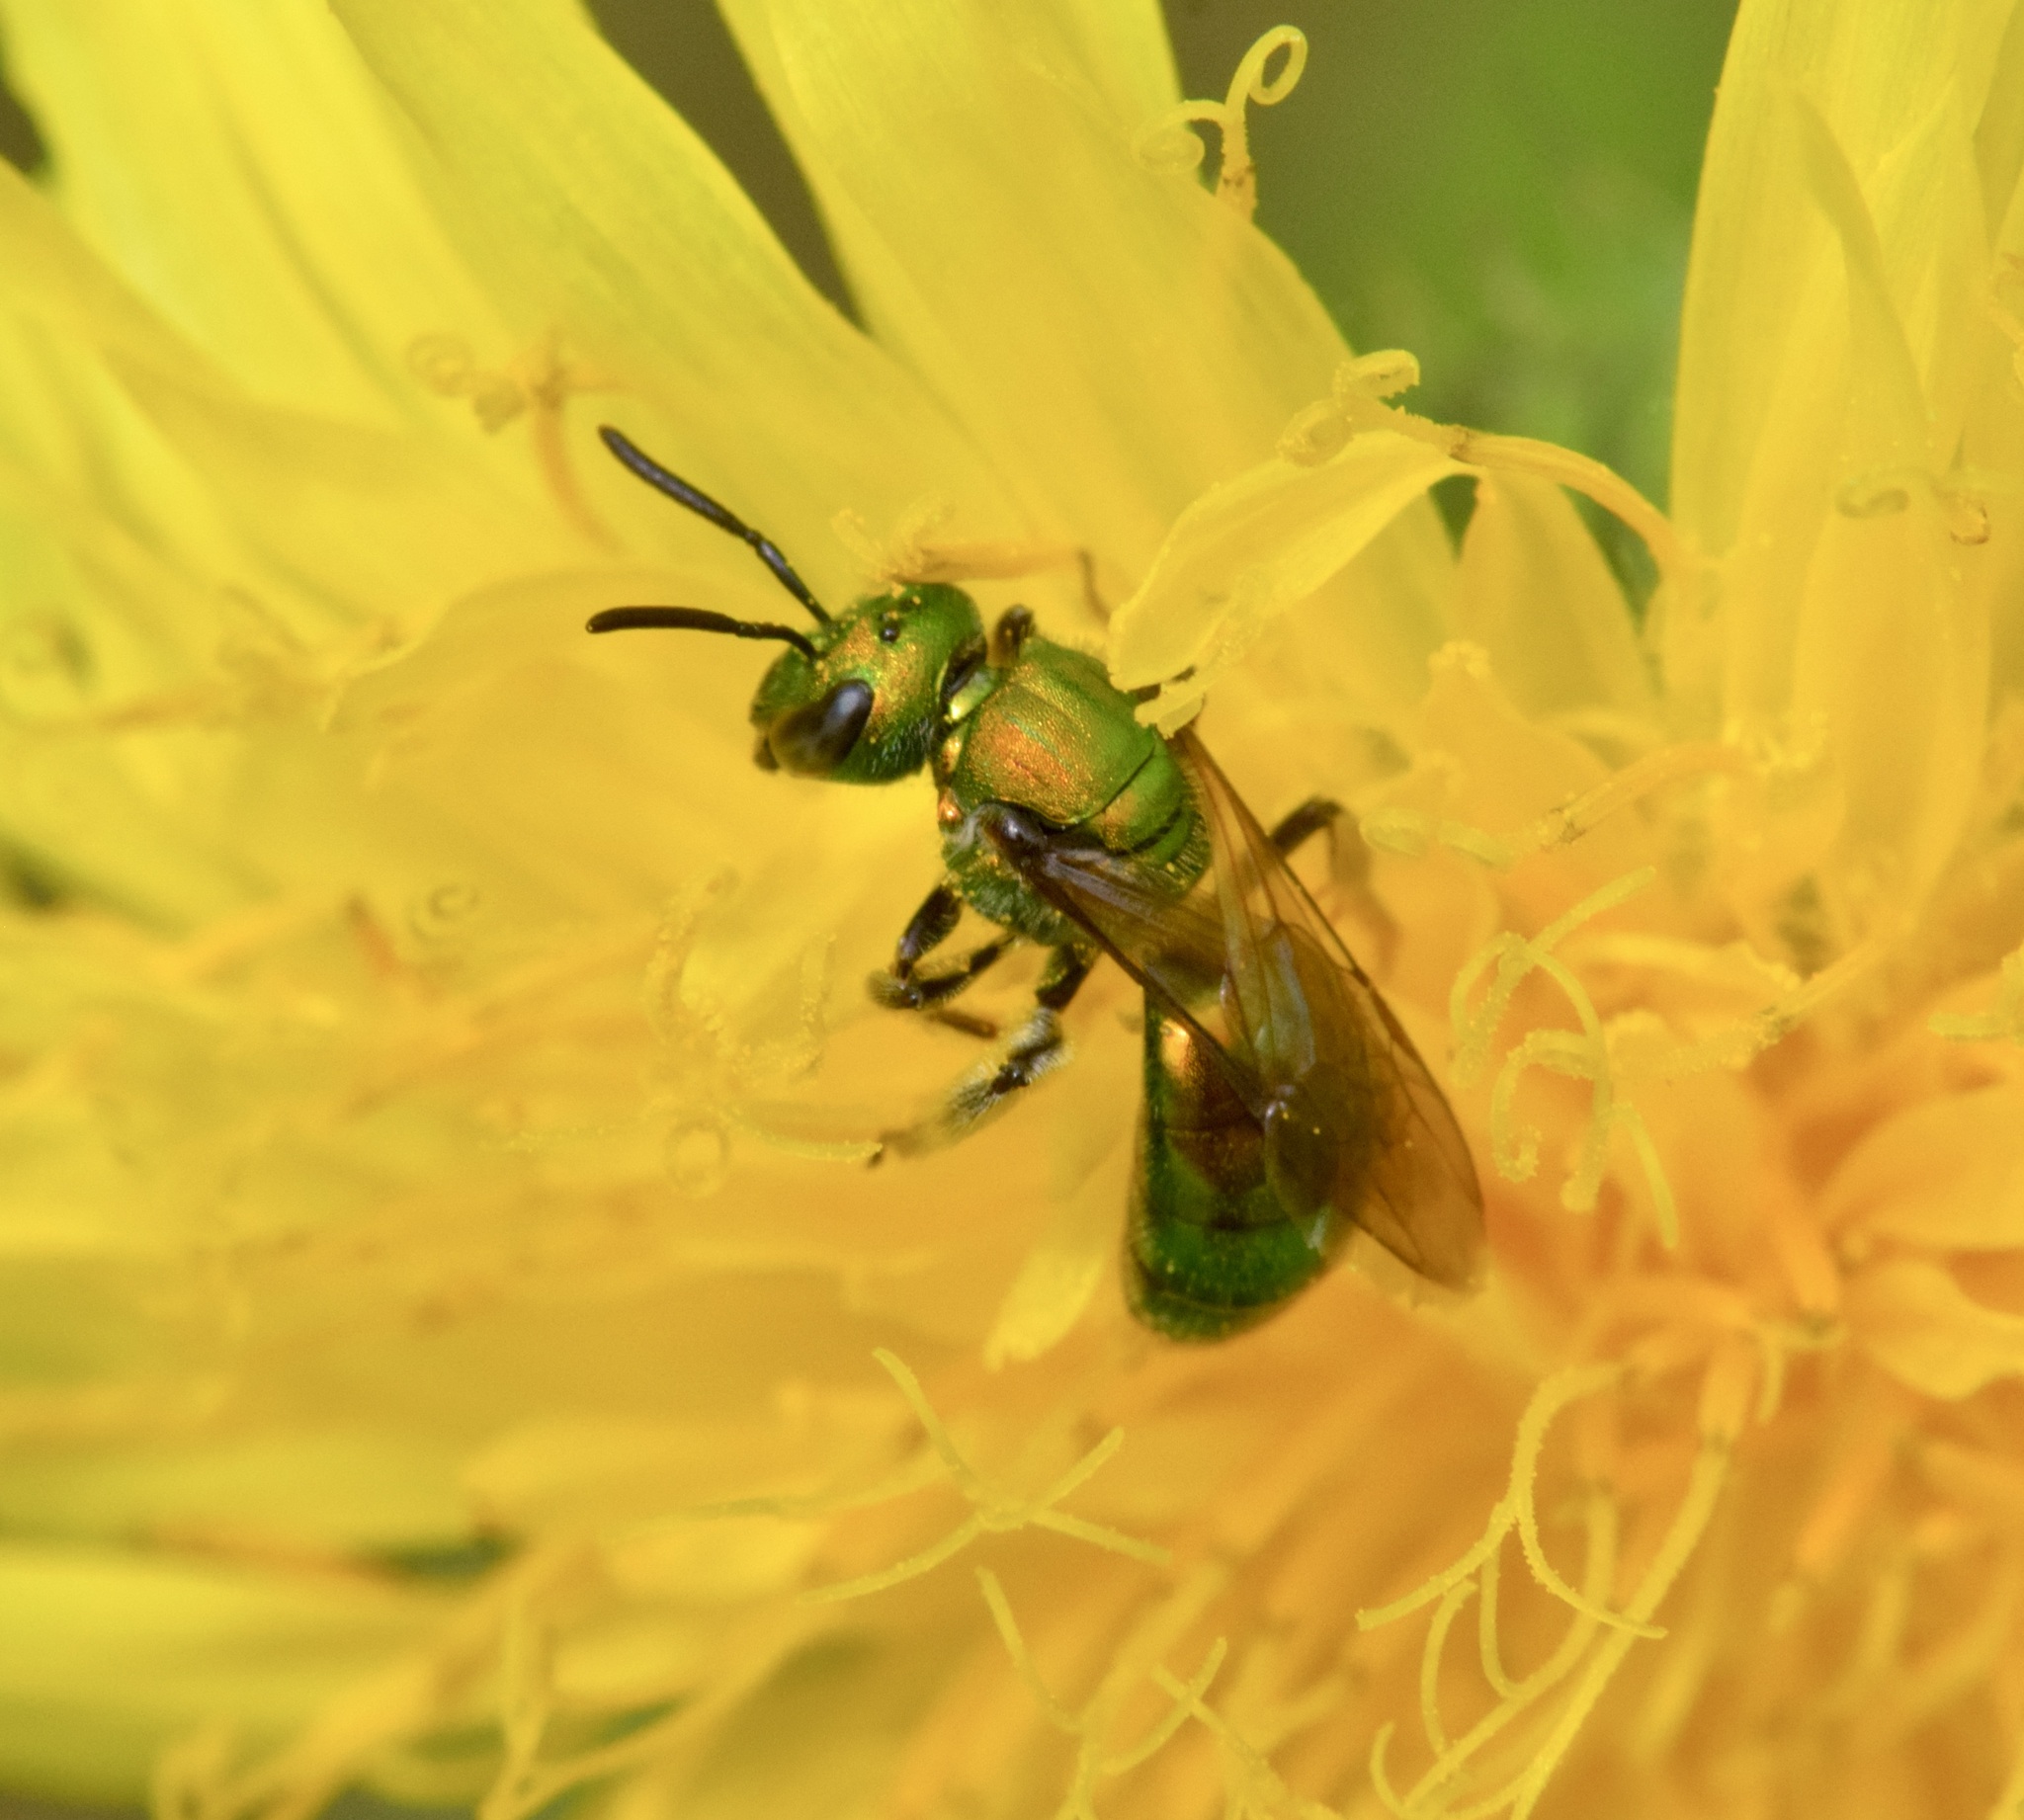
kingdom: Animalia
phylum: Arthropoda
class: Insecta
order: Hymenoptera
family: Halictidae
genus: Augochlora
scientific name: Augochlora pura
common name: Pure green sweat bee
